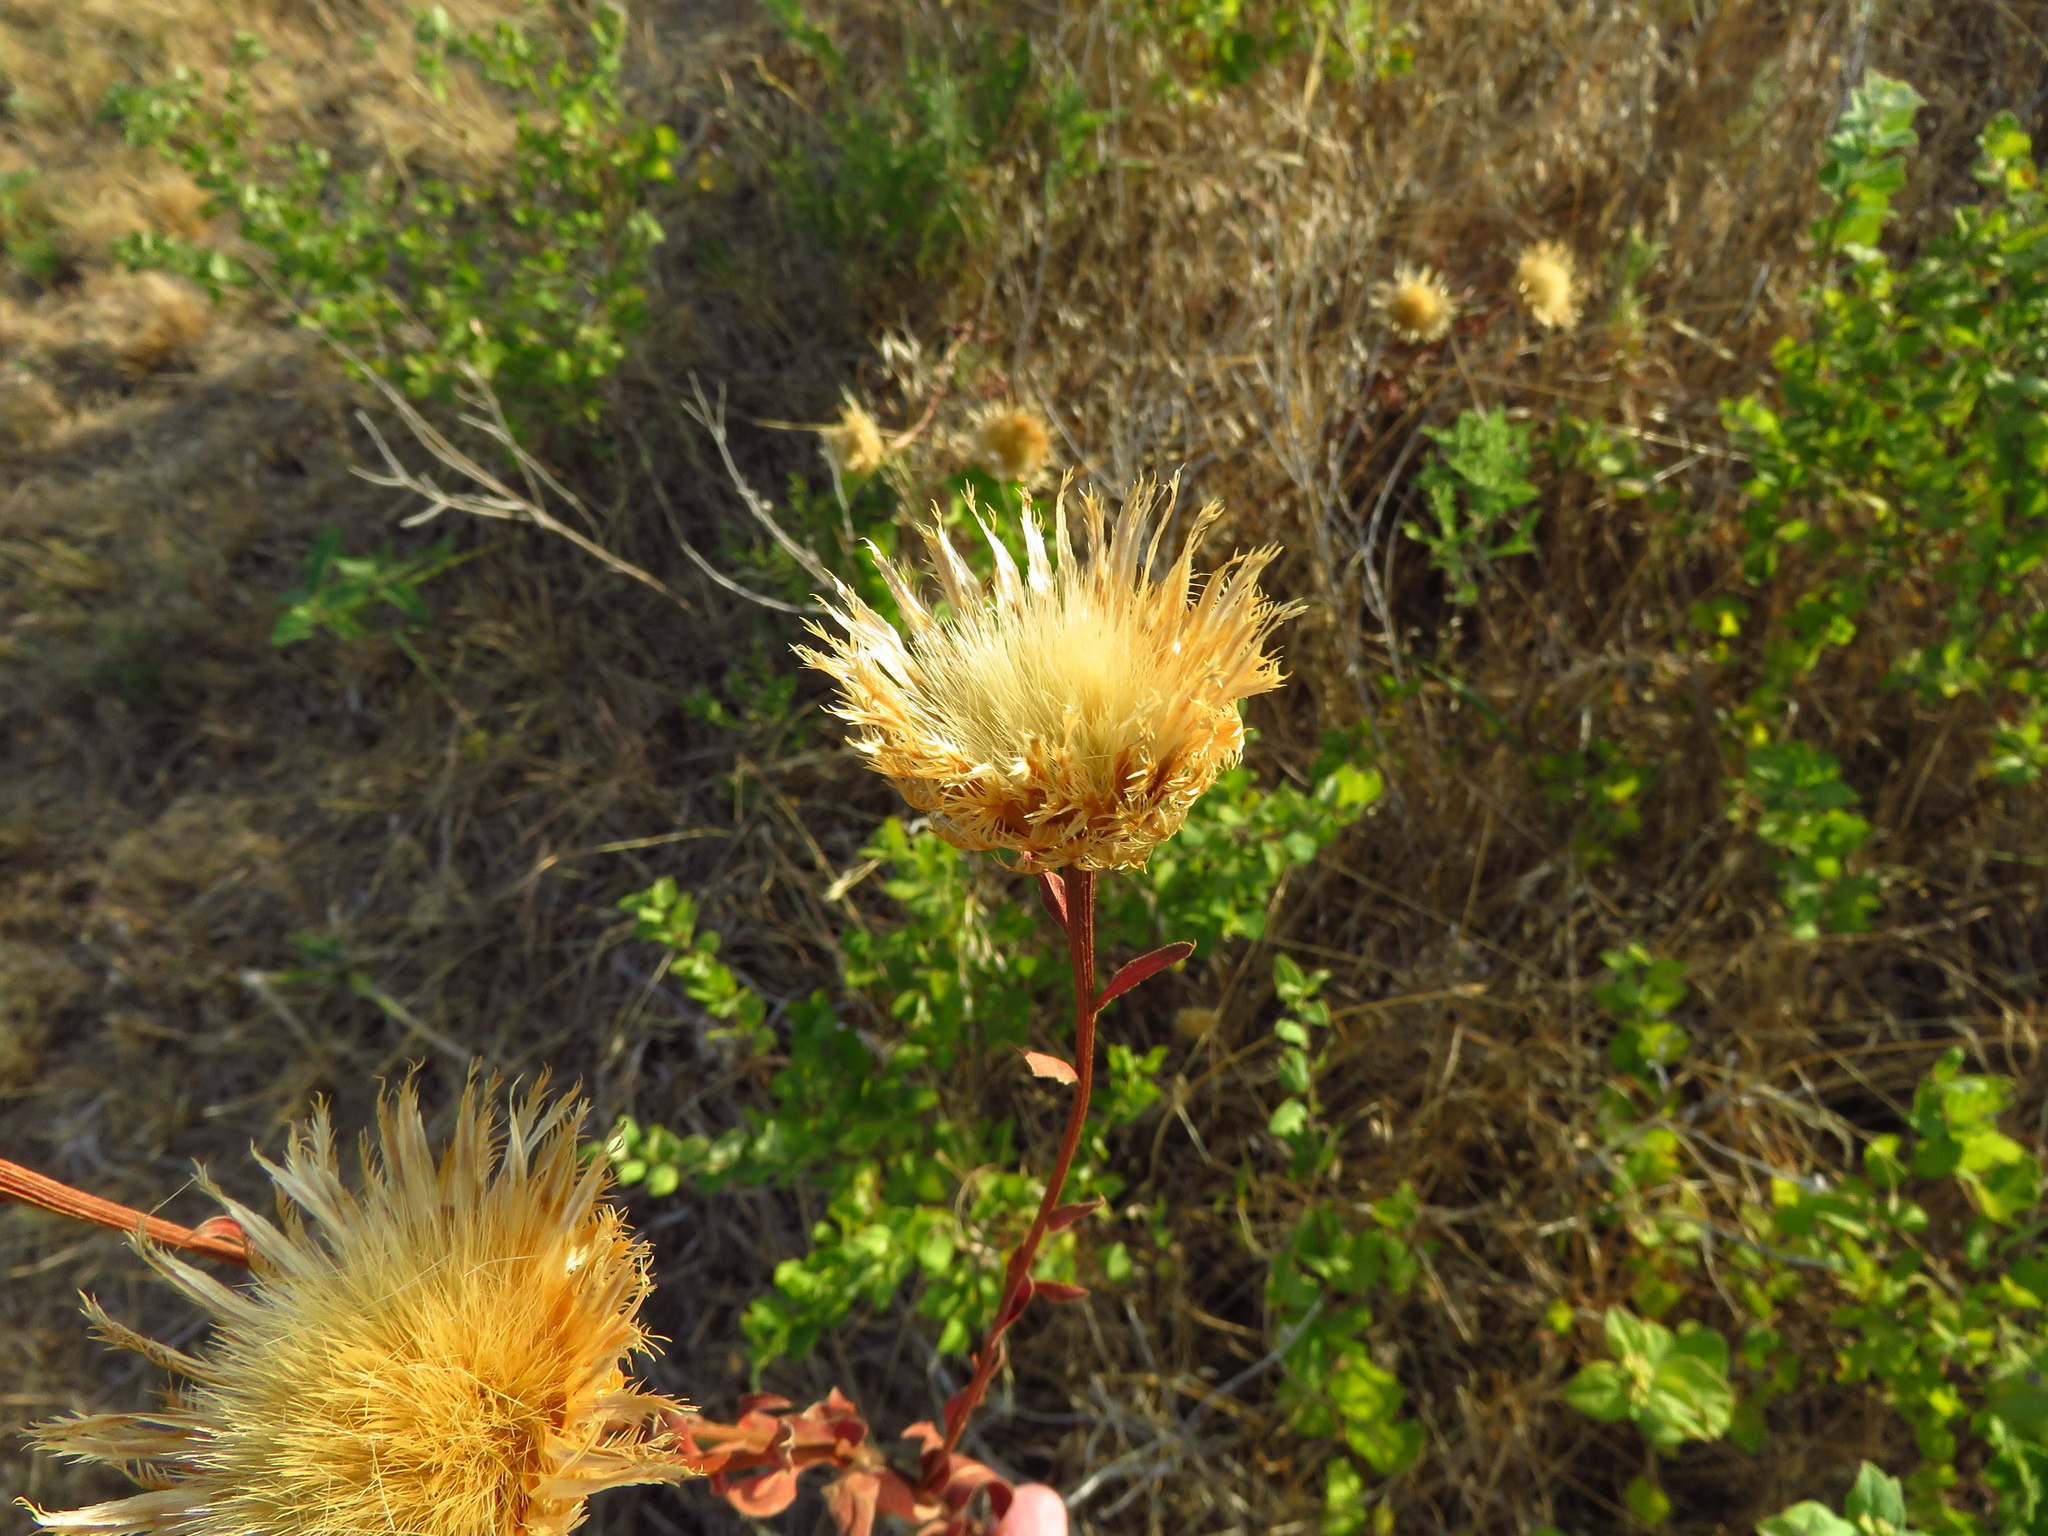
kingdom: Plantae
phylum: Tracheophyta
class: Magnoliopsida
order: Asterales
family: Asteraceae
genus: Plectocephalus
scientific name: Plectocephalus americanus
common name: American basket-flower
